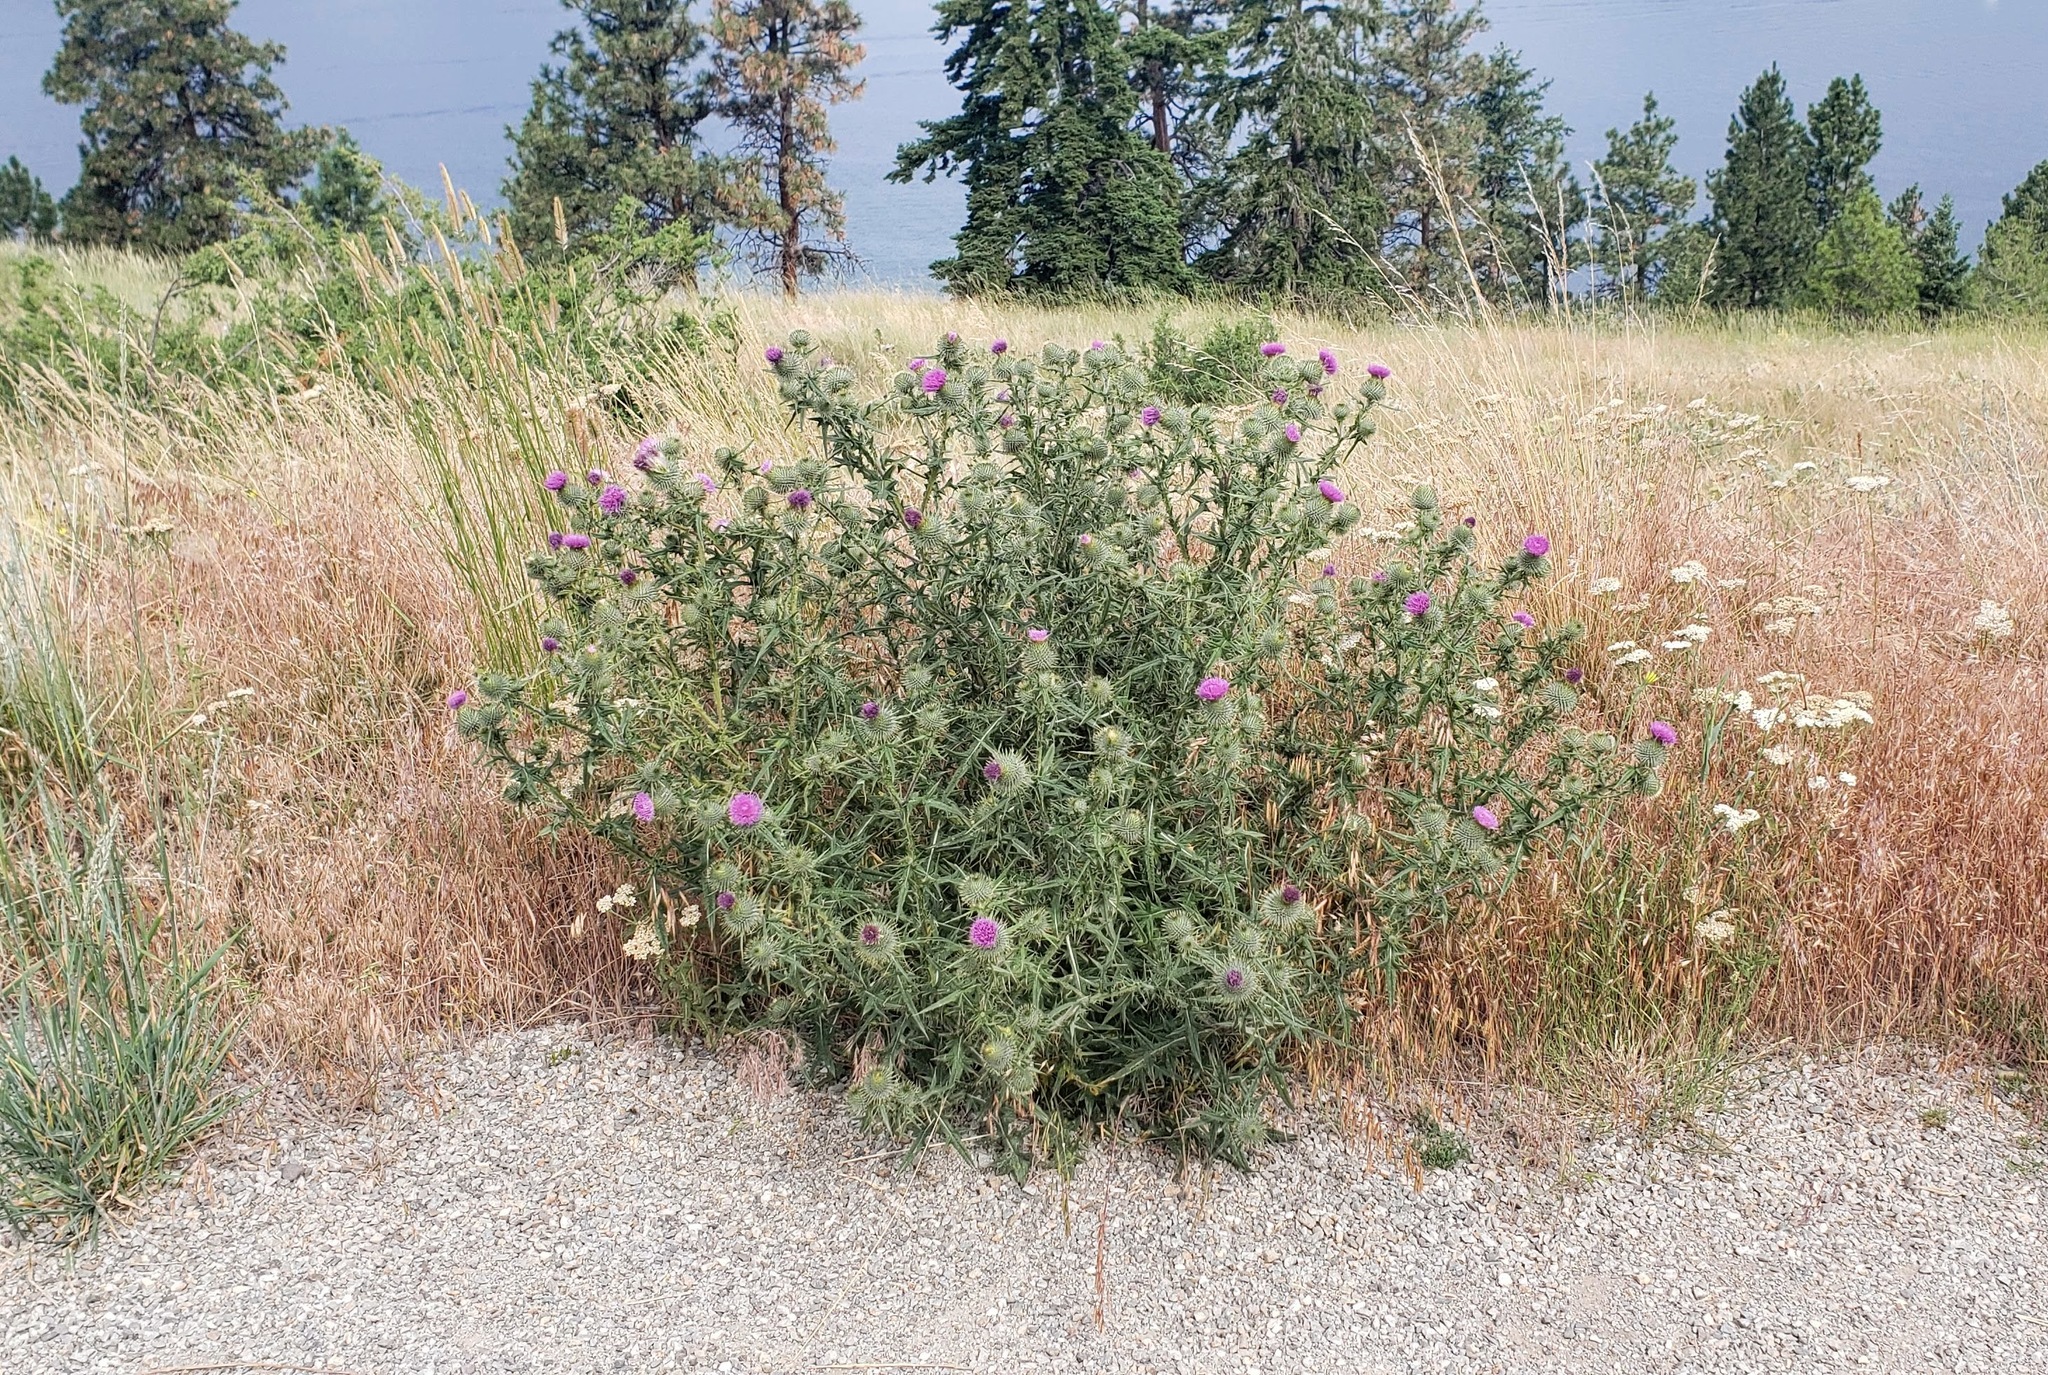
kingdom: Plantae
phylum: Tracheophyta
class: Magnoliopsida
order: Asterales
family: Asteraceae
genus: Cirsium
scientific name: Cirsium vulgare
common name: Bull thistle
